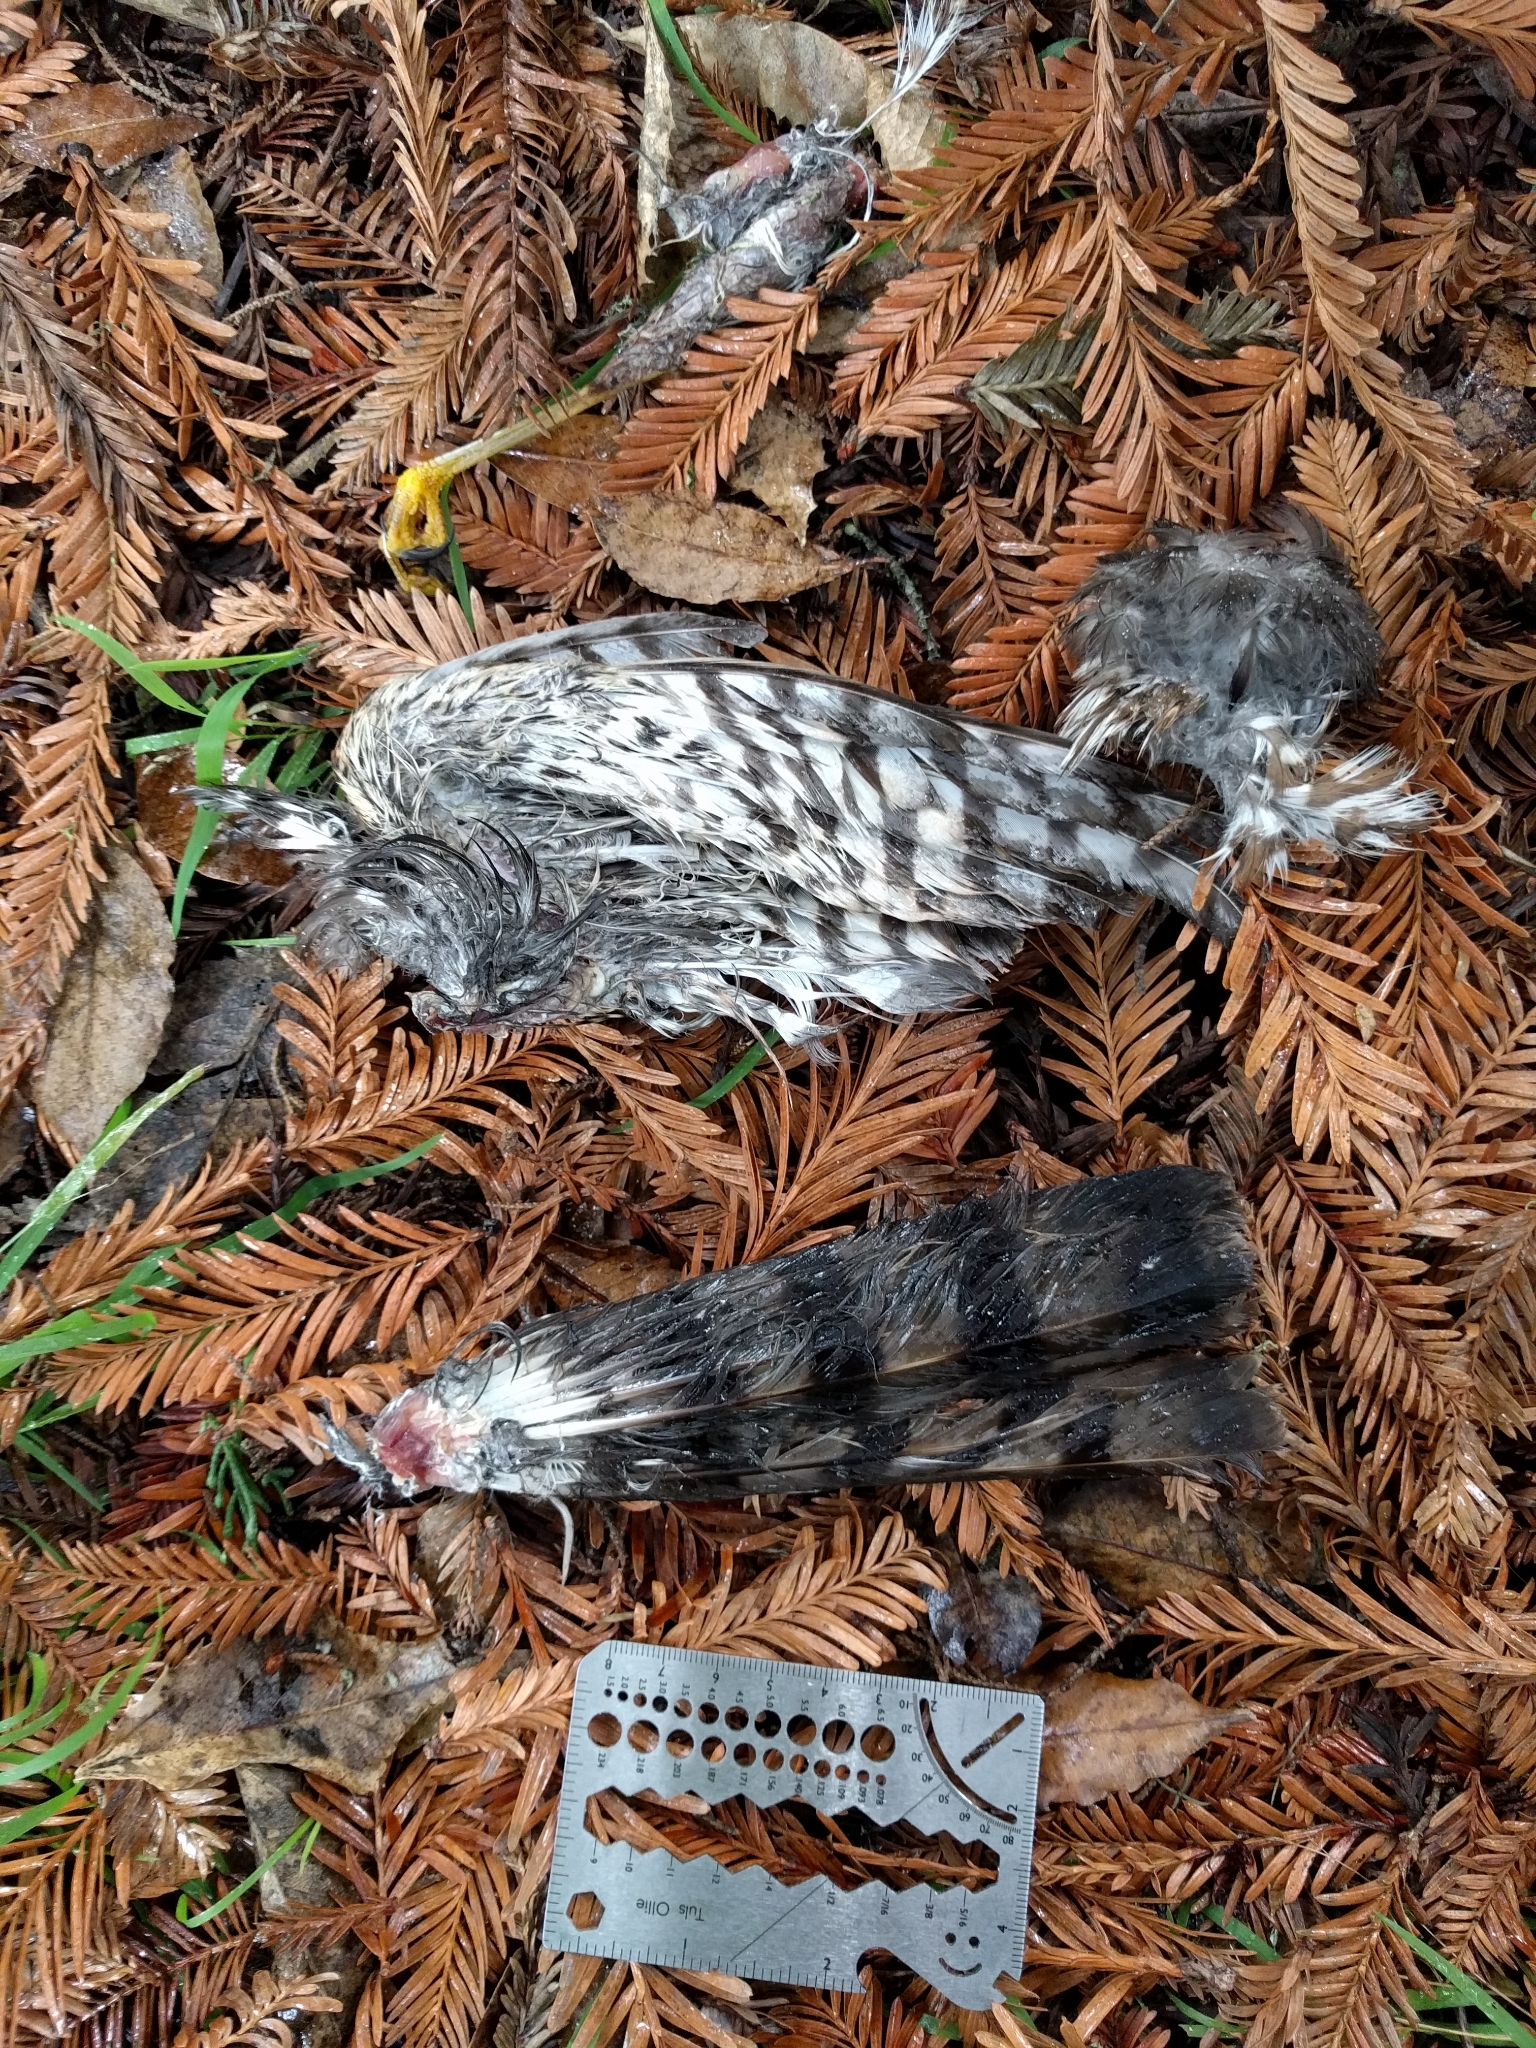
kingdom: Animalia
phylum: Chordata
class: Aves
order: Accipitriformes
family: Accipitridae
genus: Accipiter
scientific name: Accipiter striatus
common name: Sharp-shinned hawk
